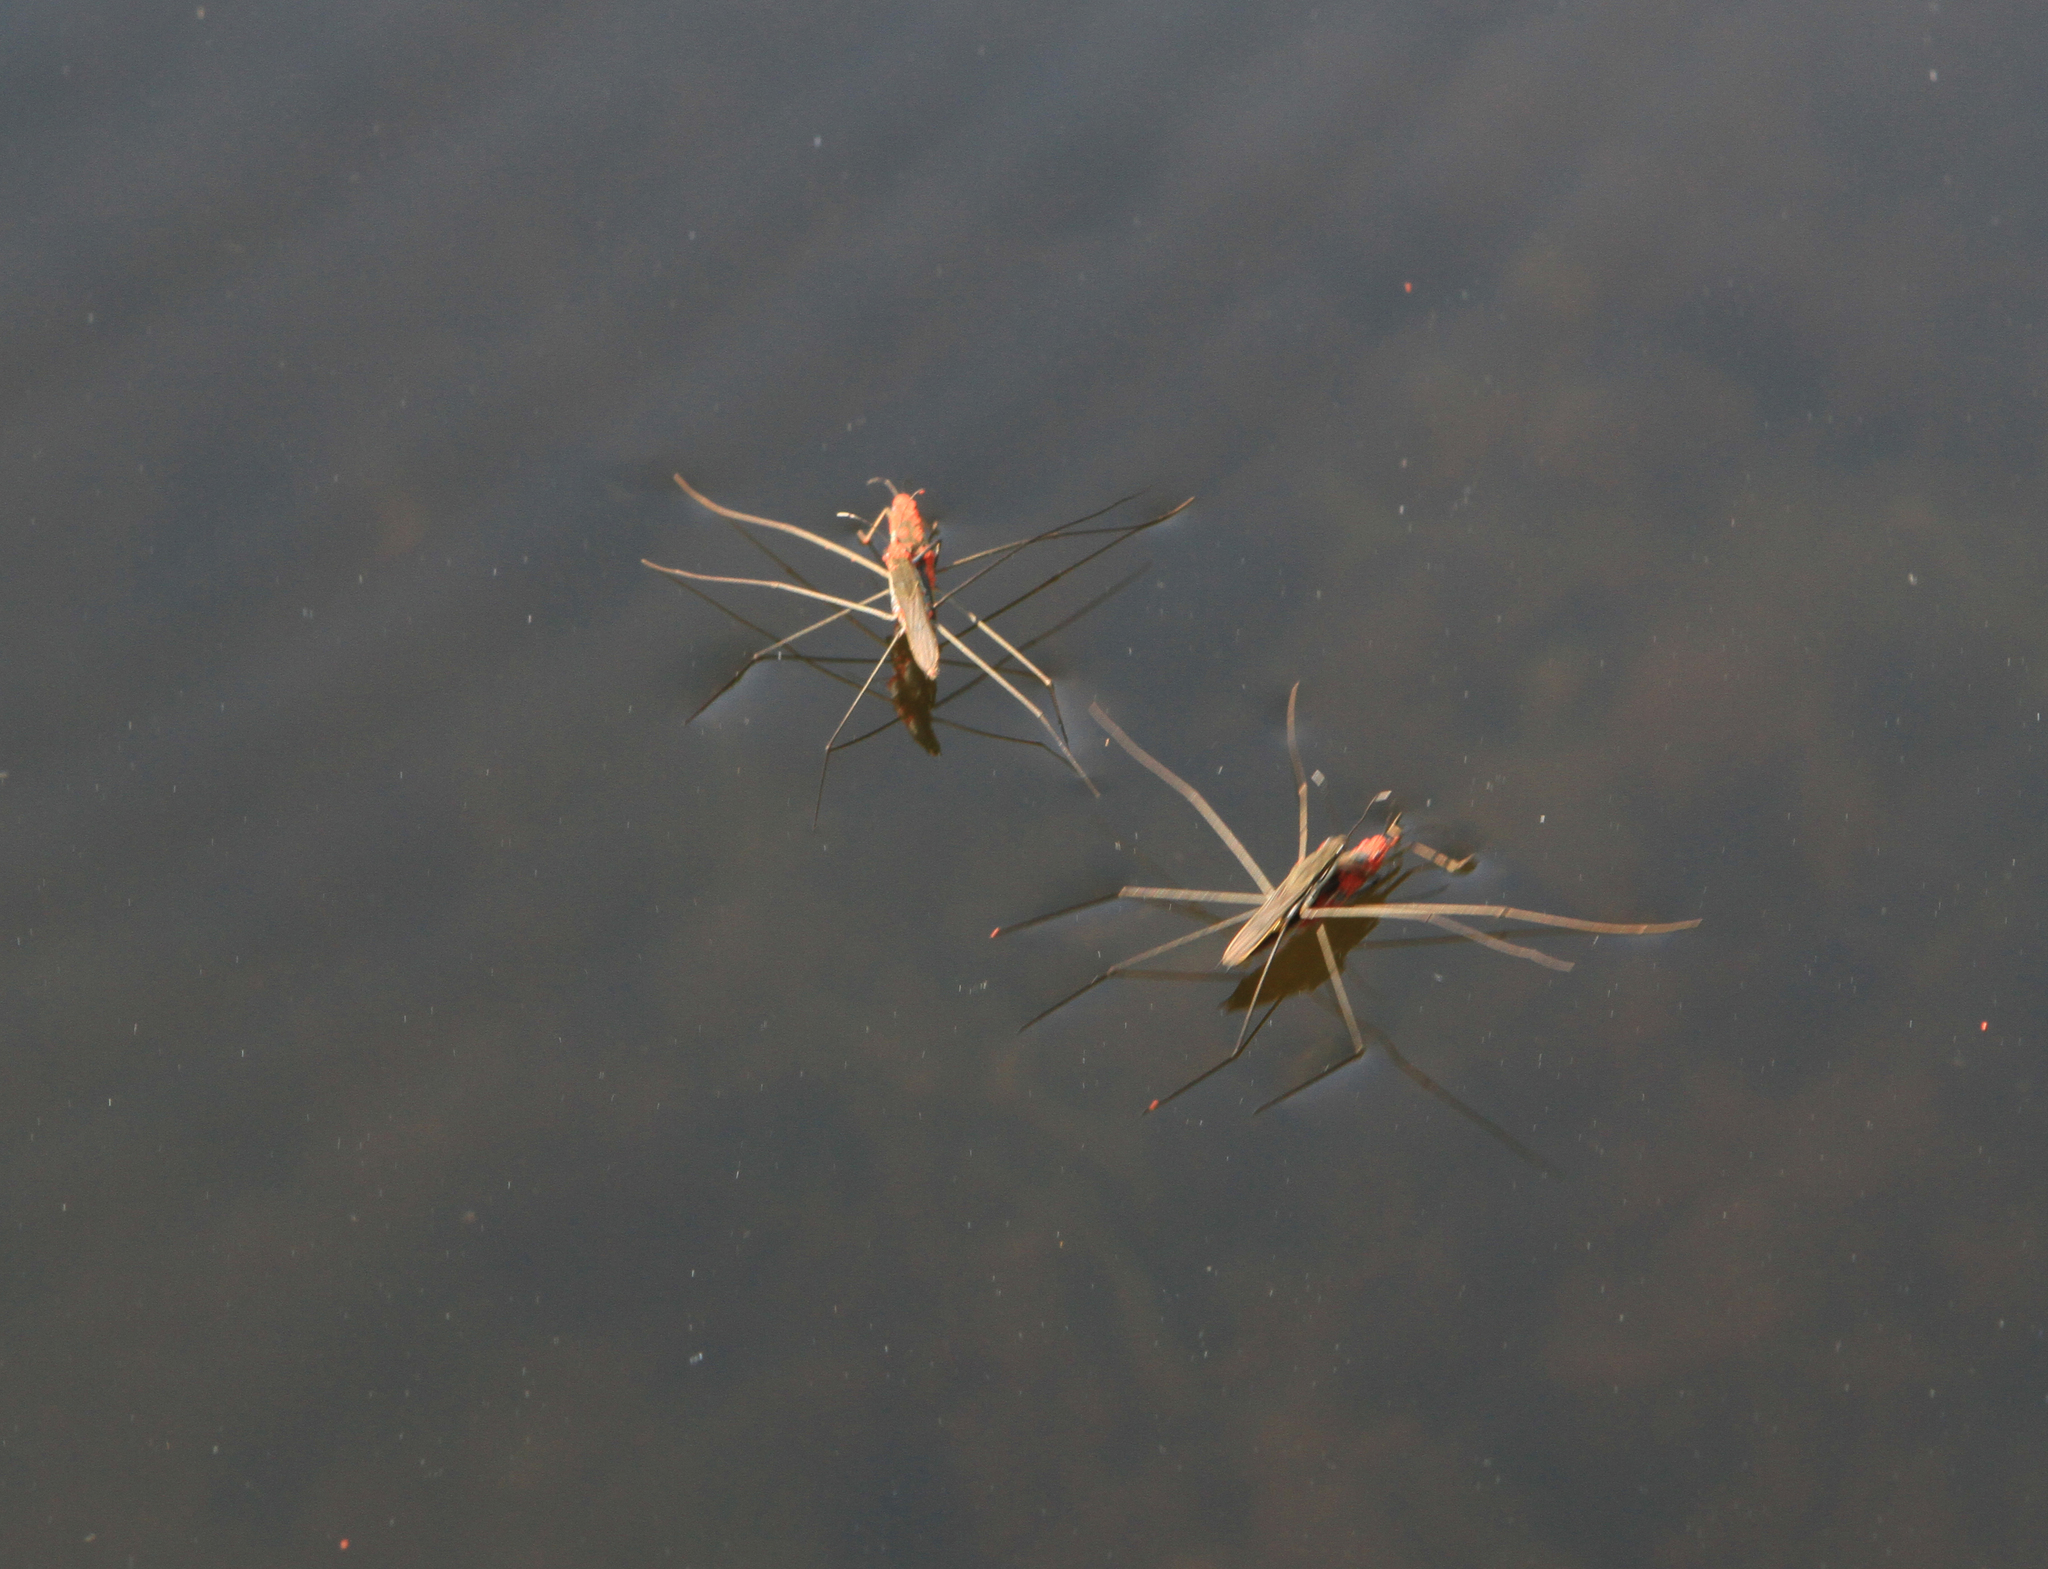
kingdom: Animalia
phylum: Arthropoda
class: Insecta
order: Hemiptera
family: Gerridae
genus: Aquarius
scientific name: Aquarius paludum
